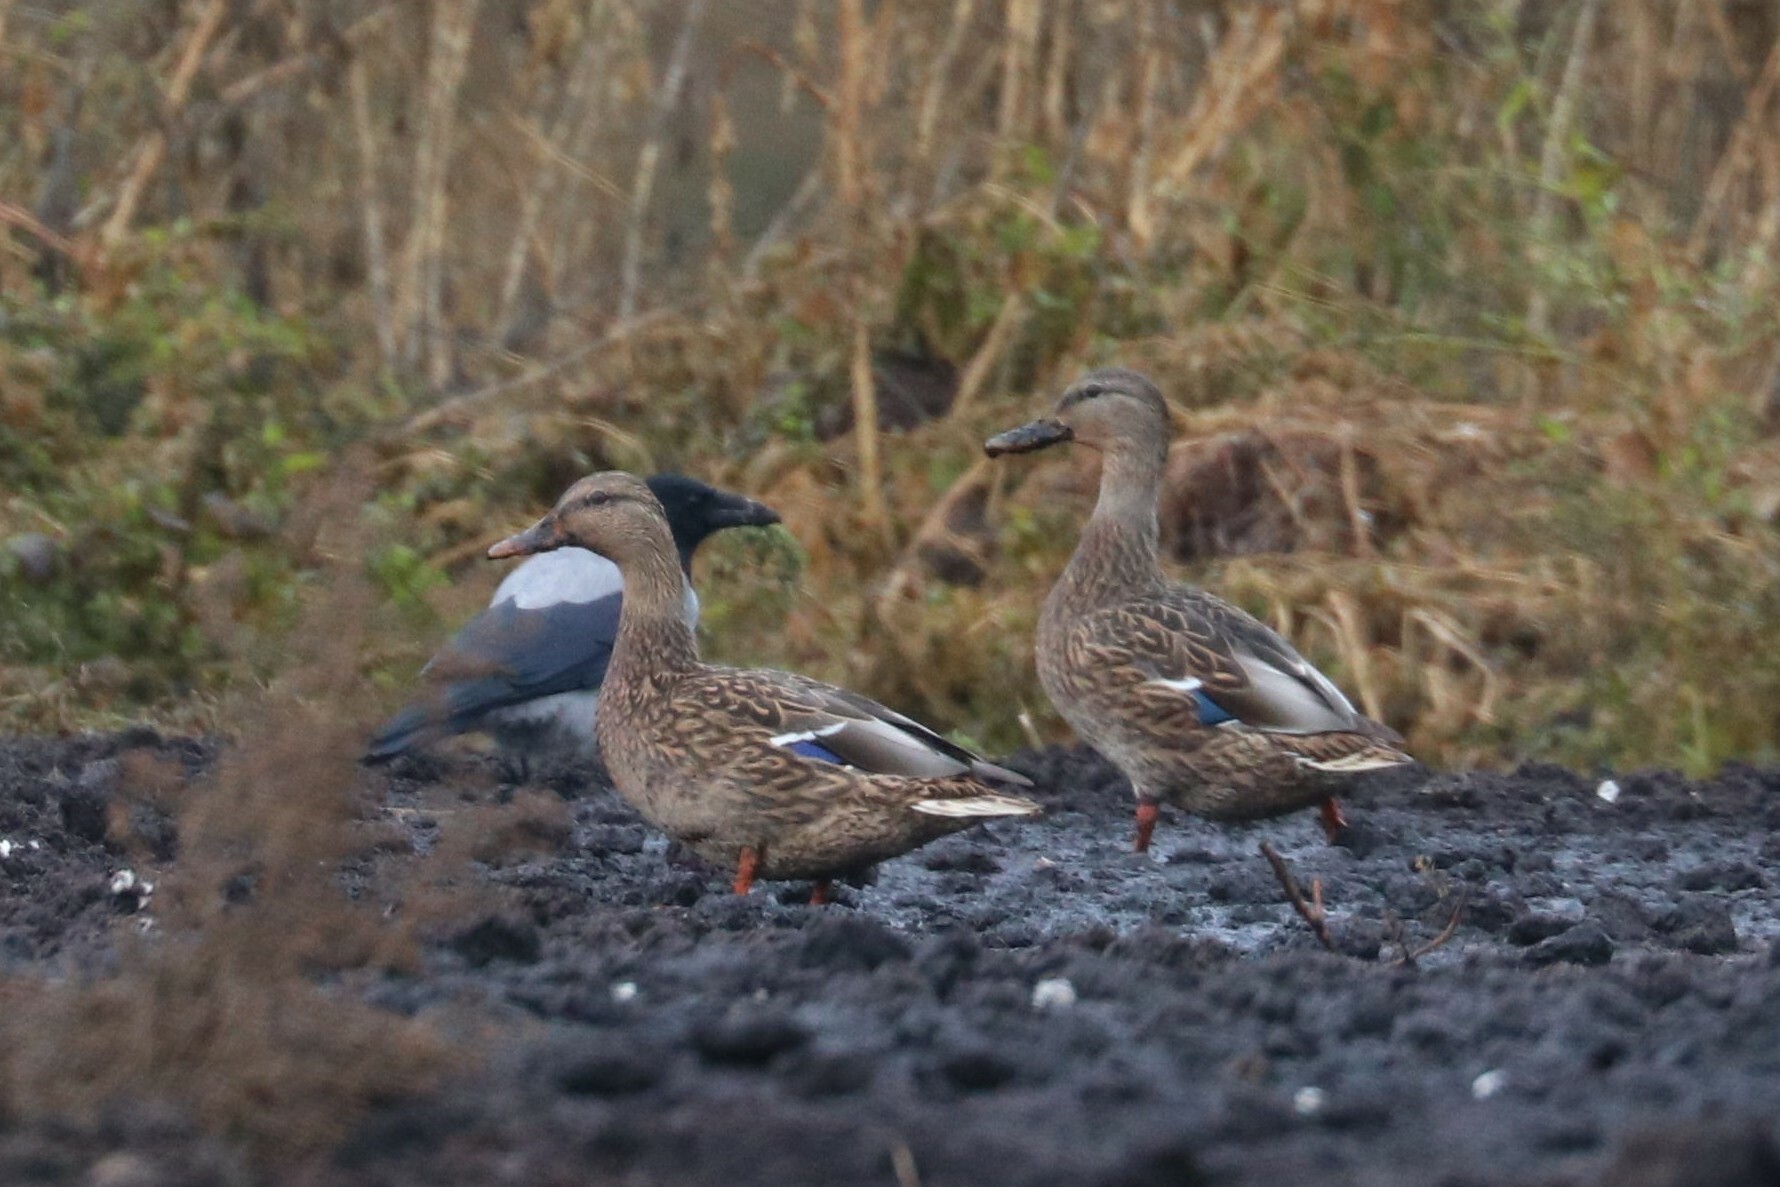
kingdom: Animalia
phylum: Chordata
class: Aves
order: Anseriformes
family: Anatidae
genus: Anas
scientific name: Anas platyrhynchos
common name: Mallard
